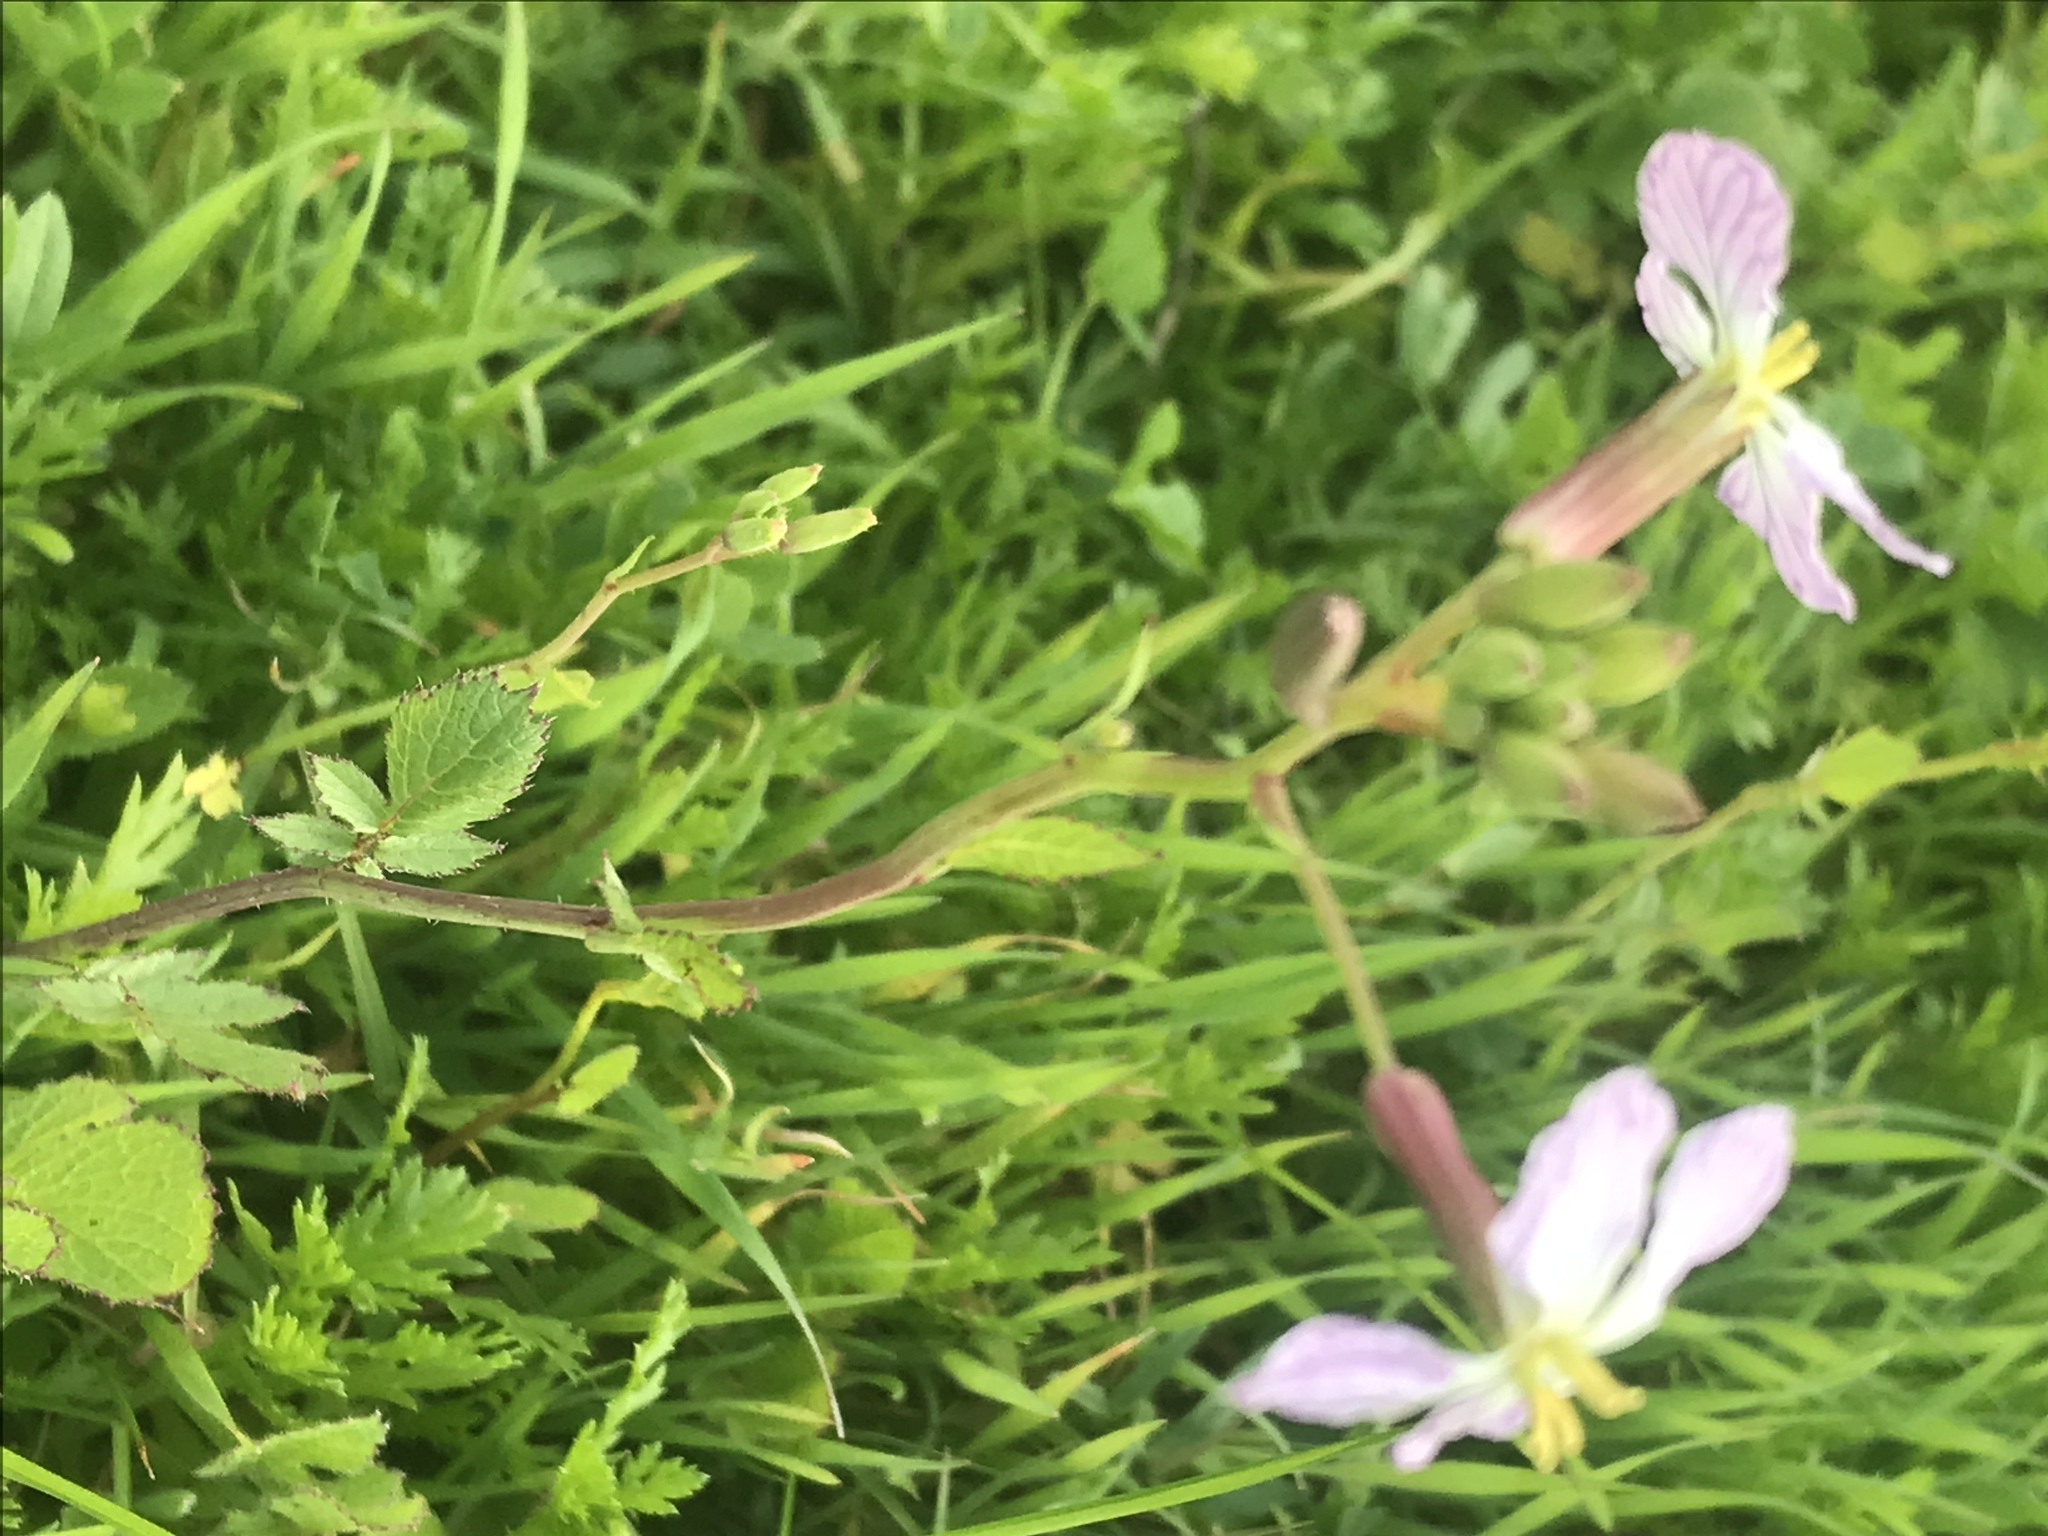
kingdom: Plantae
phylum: Tracheophyta
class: Magnoliopsida
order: Brassicales
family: Brassicaceae
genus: Raphanus
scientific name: Raphanus sativus
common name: Cultivated radish
